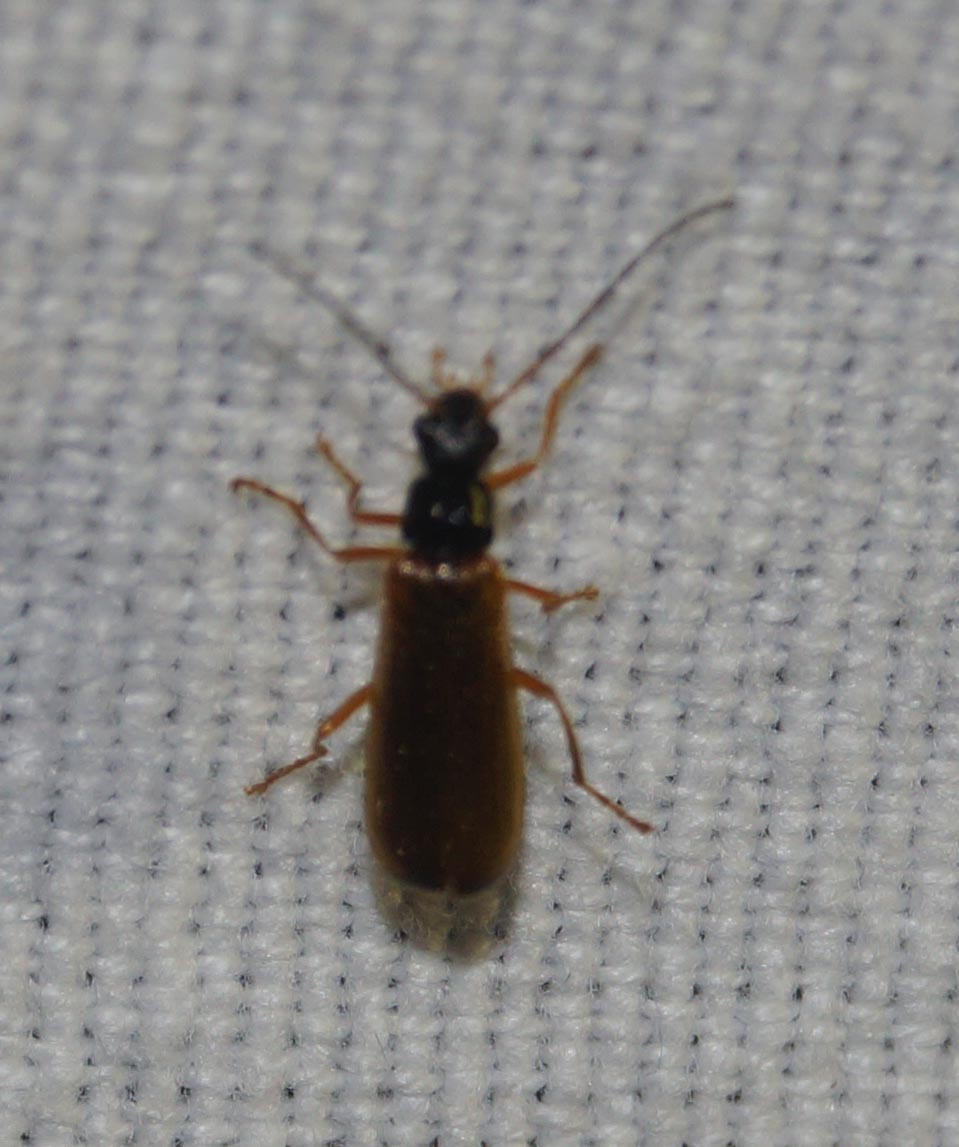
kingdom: Animalia
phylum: Arthropoda
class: Insecta
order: Coleoptera
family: Cantharidae
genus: Rhagonycha
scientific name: Rhagonycha lignosa
